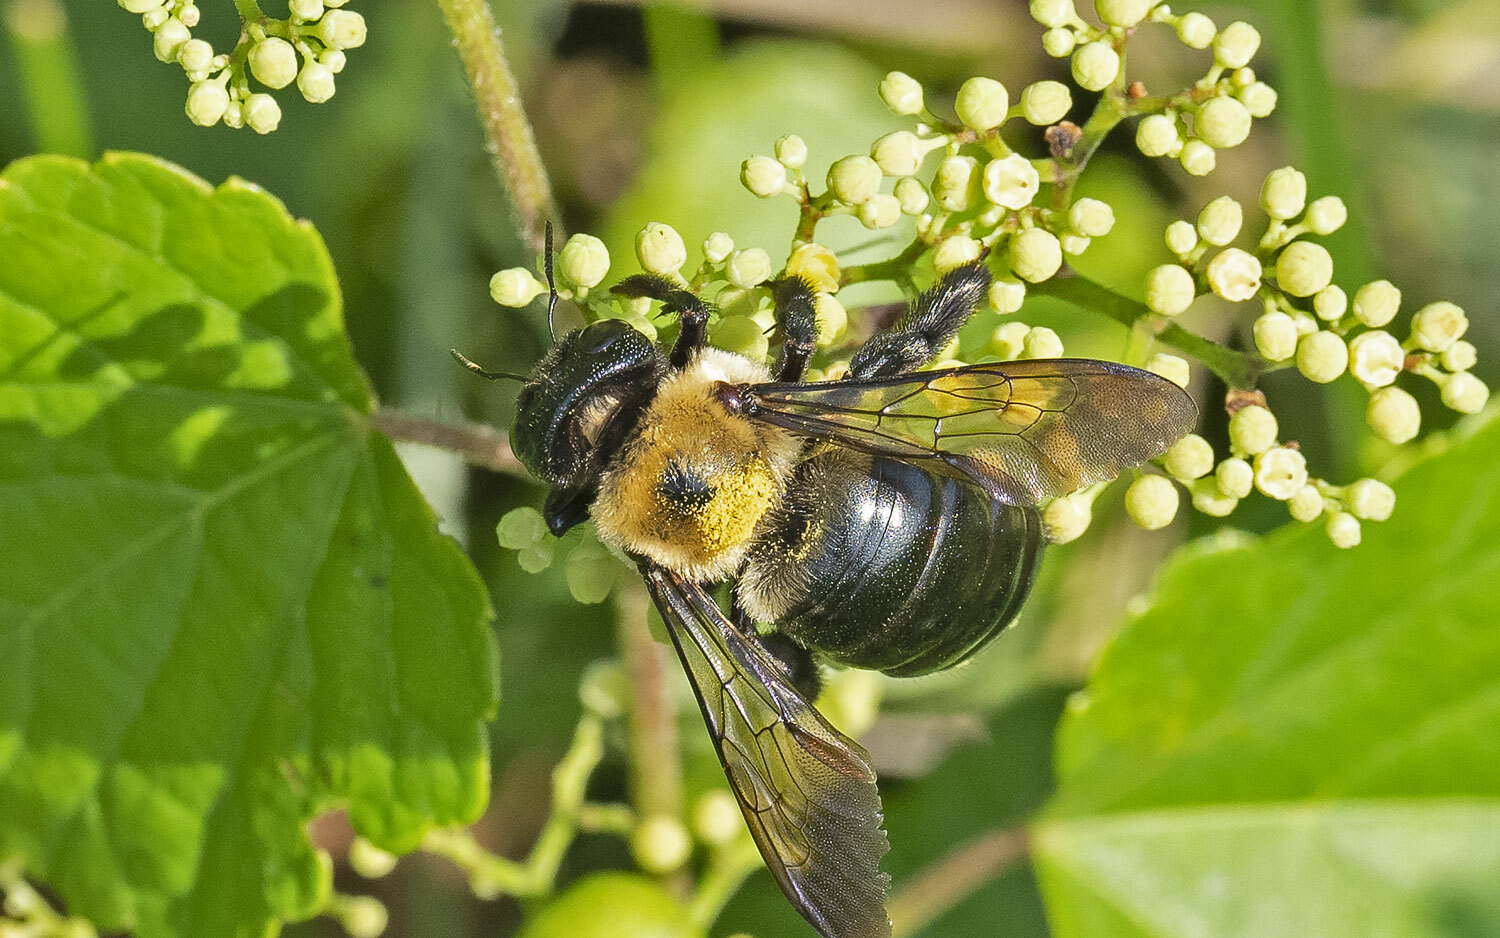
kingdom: Animalia
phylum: Arthropoda
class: Insecta
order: Hymenoptera
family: Apidae
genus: Xylocopa
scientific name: Xylocopa virginica
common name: Carpenter bee
